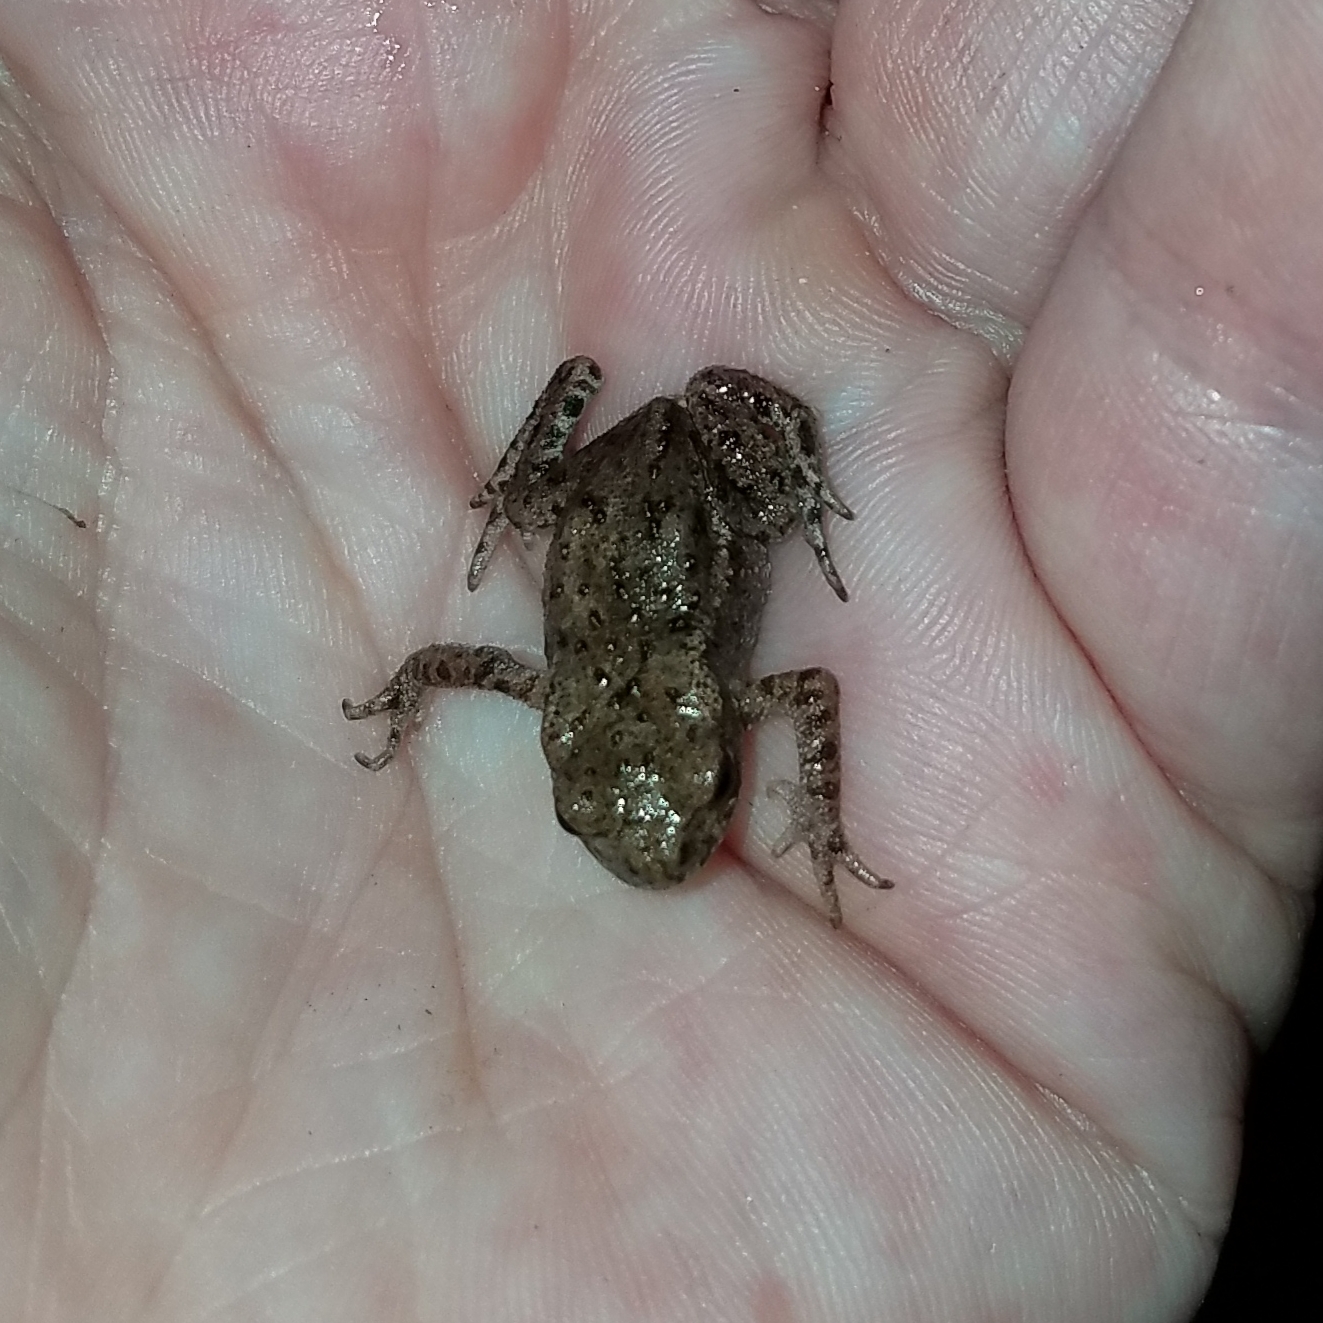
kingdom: Animalia
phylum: Chordata
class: Amphibia
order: Anura
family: Bufonidae
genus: Bufo
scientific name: Bufo bufo
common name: Common toad
